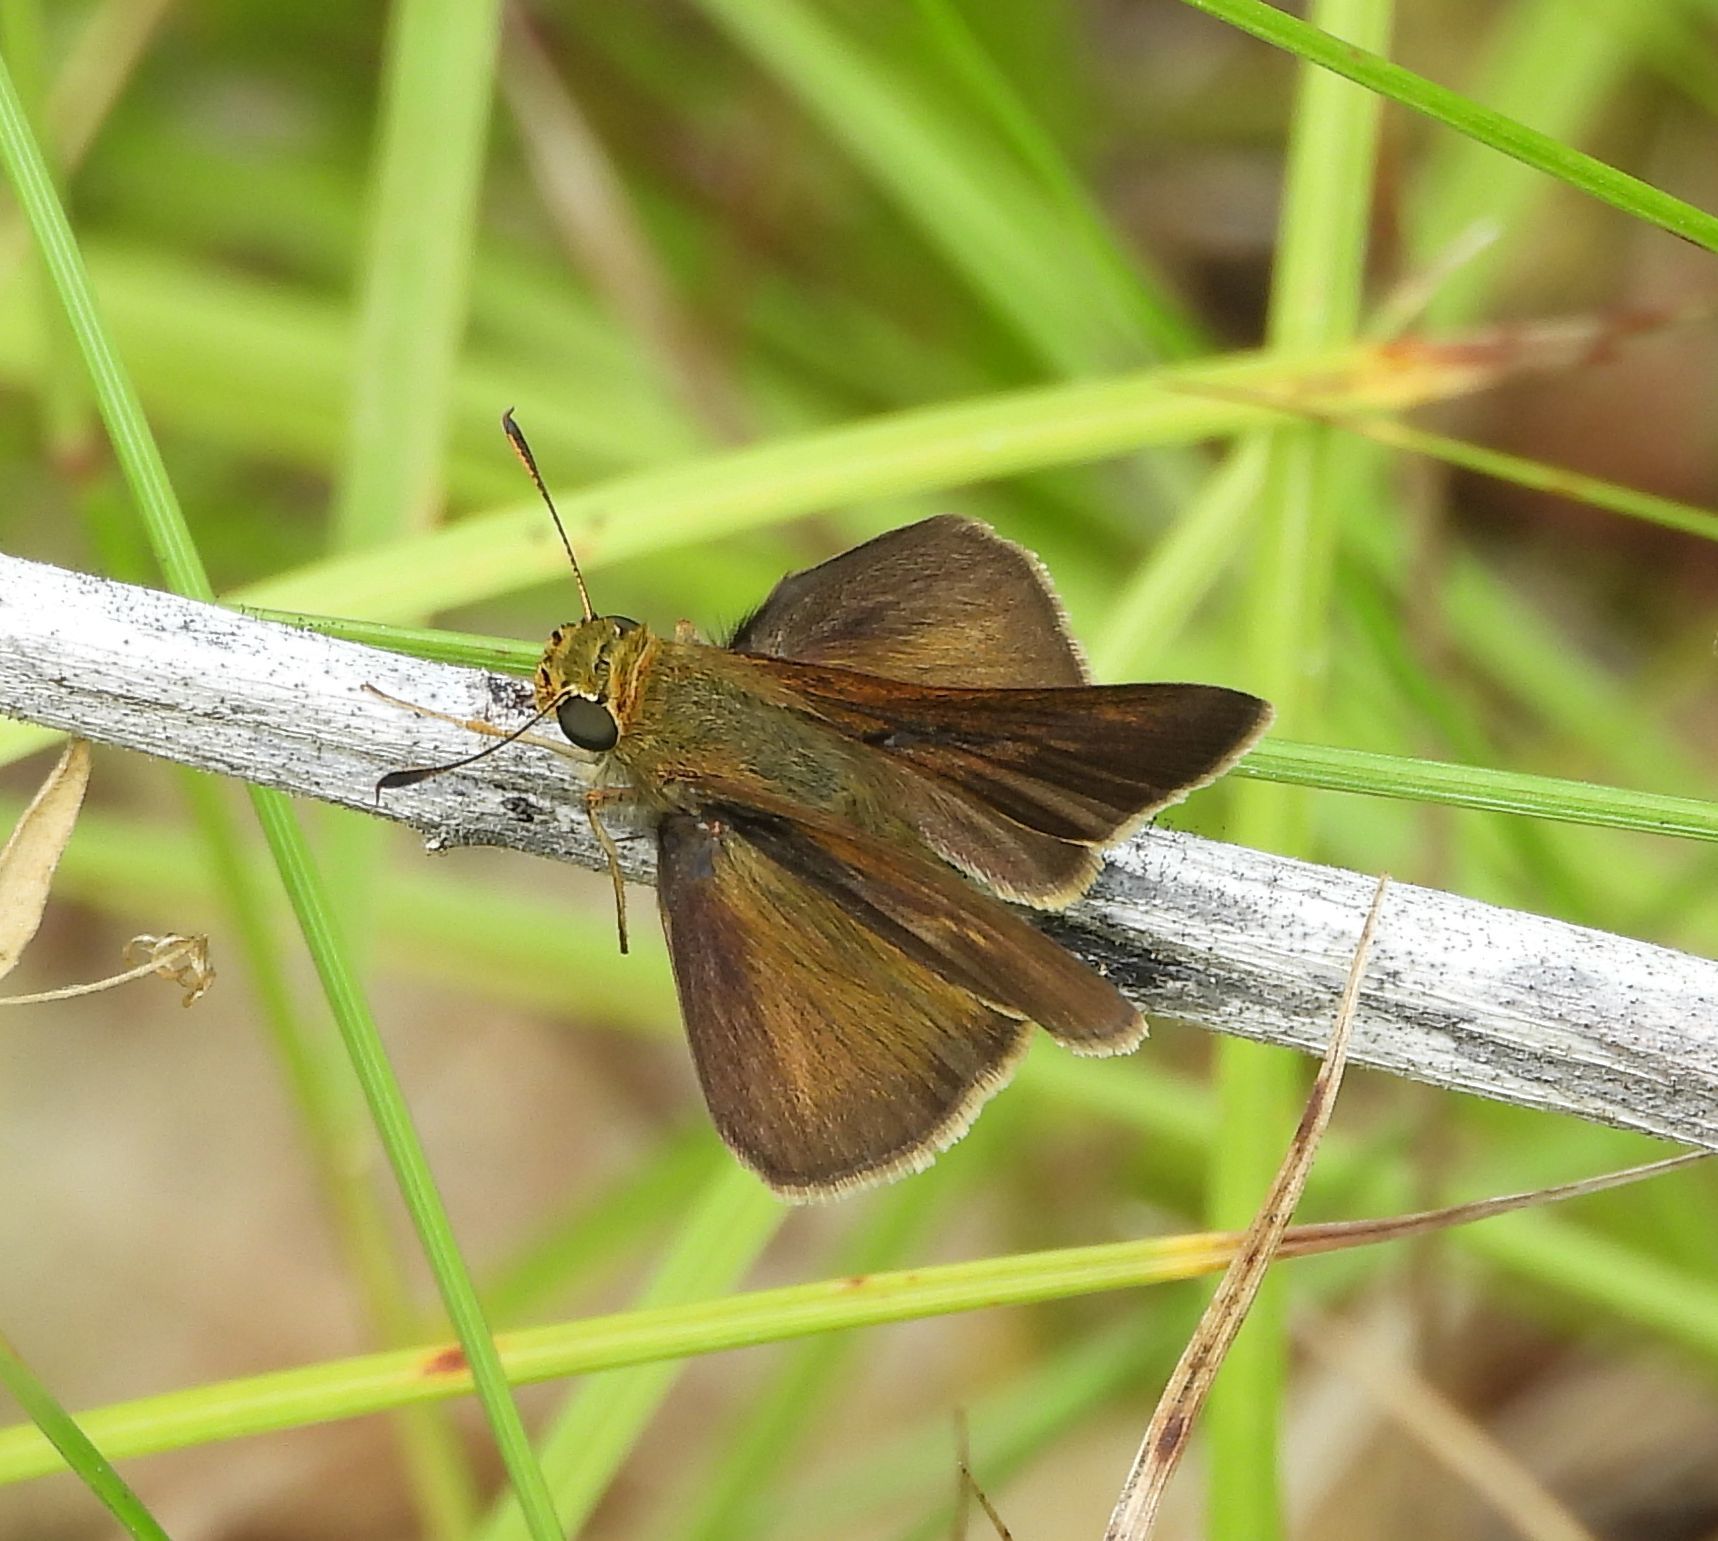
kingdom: Animalia
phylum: Arthropoda
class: Insecta
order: Lepidoptera
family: Hesperiidae
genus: Euphyes
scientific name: Euphyes vestris
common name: Dun skipper
